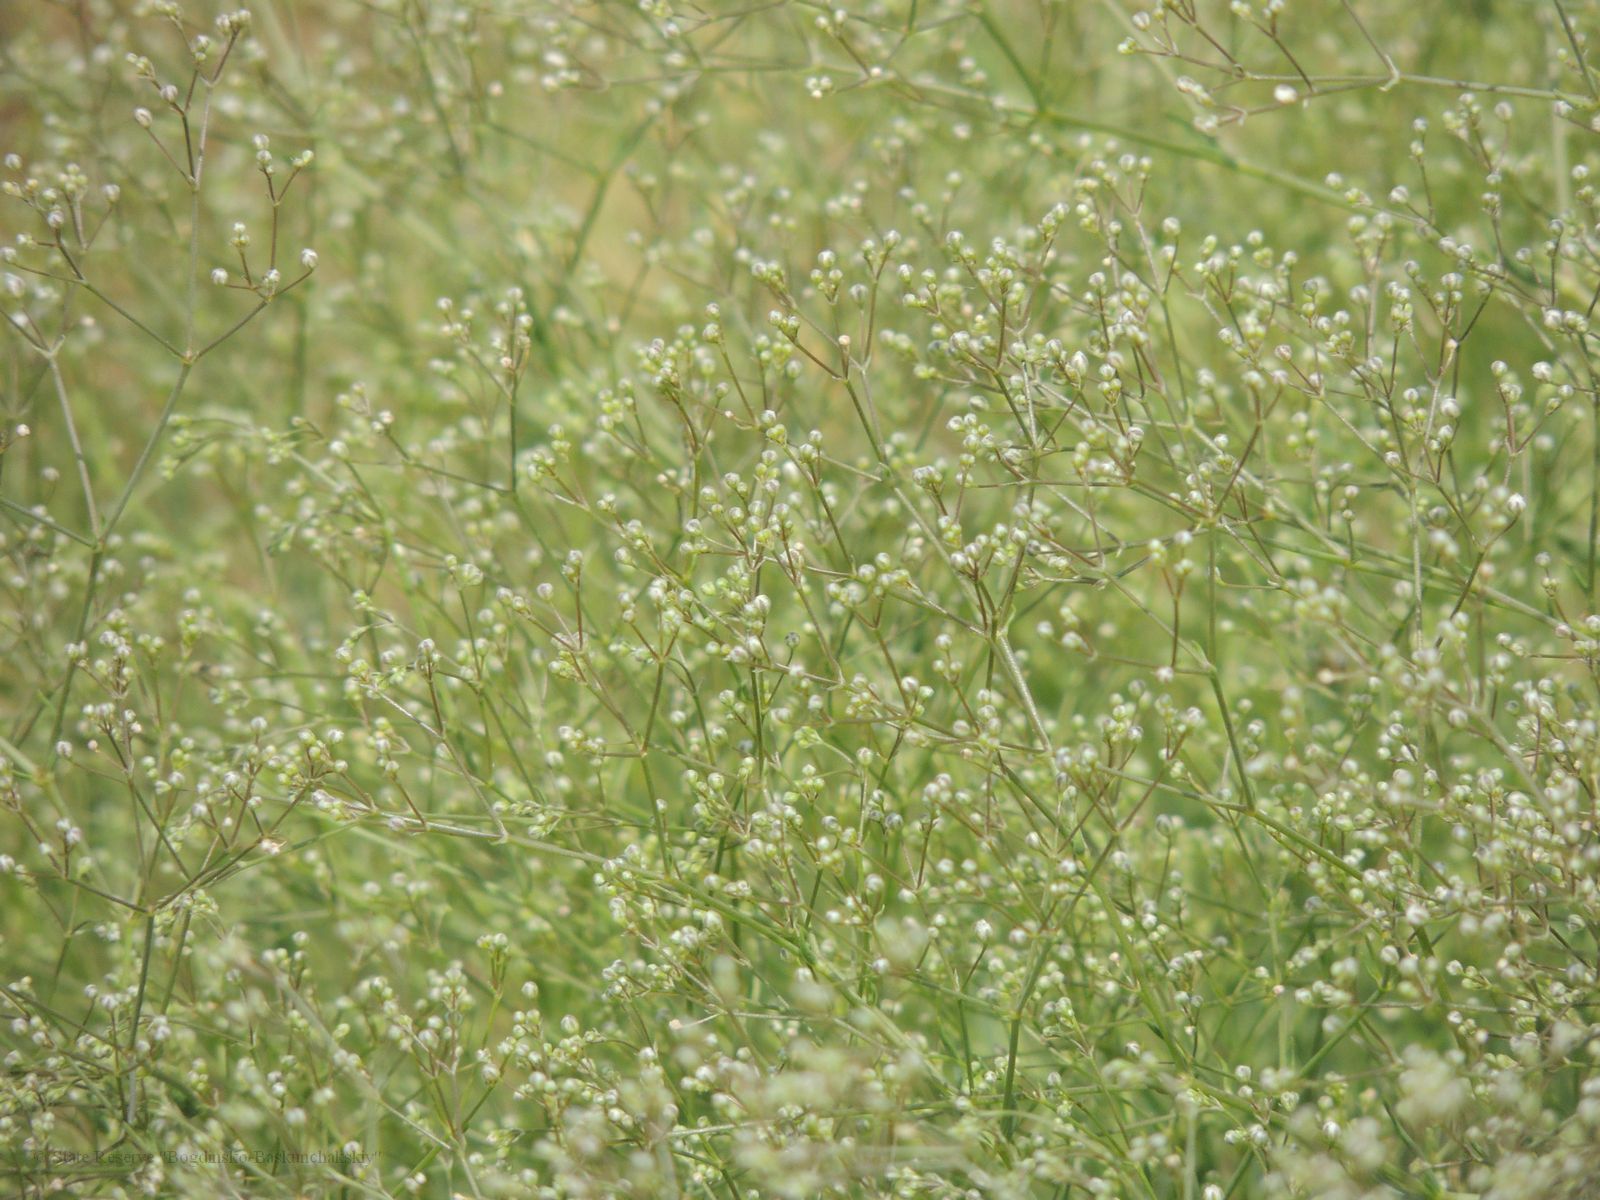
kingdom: Plantae
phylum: Tracheophyta
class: Magnoliopsida
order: Caryophyllales
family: Caryophyllaceae
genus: Gypsophila
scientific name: Gypsophila paniculata
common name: Baby's-breath
